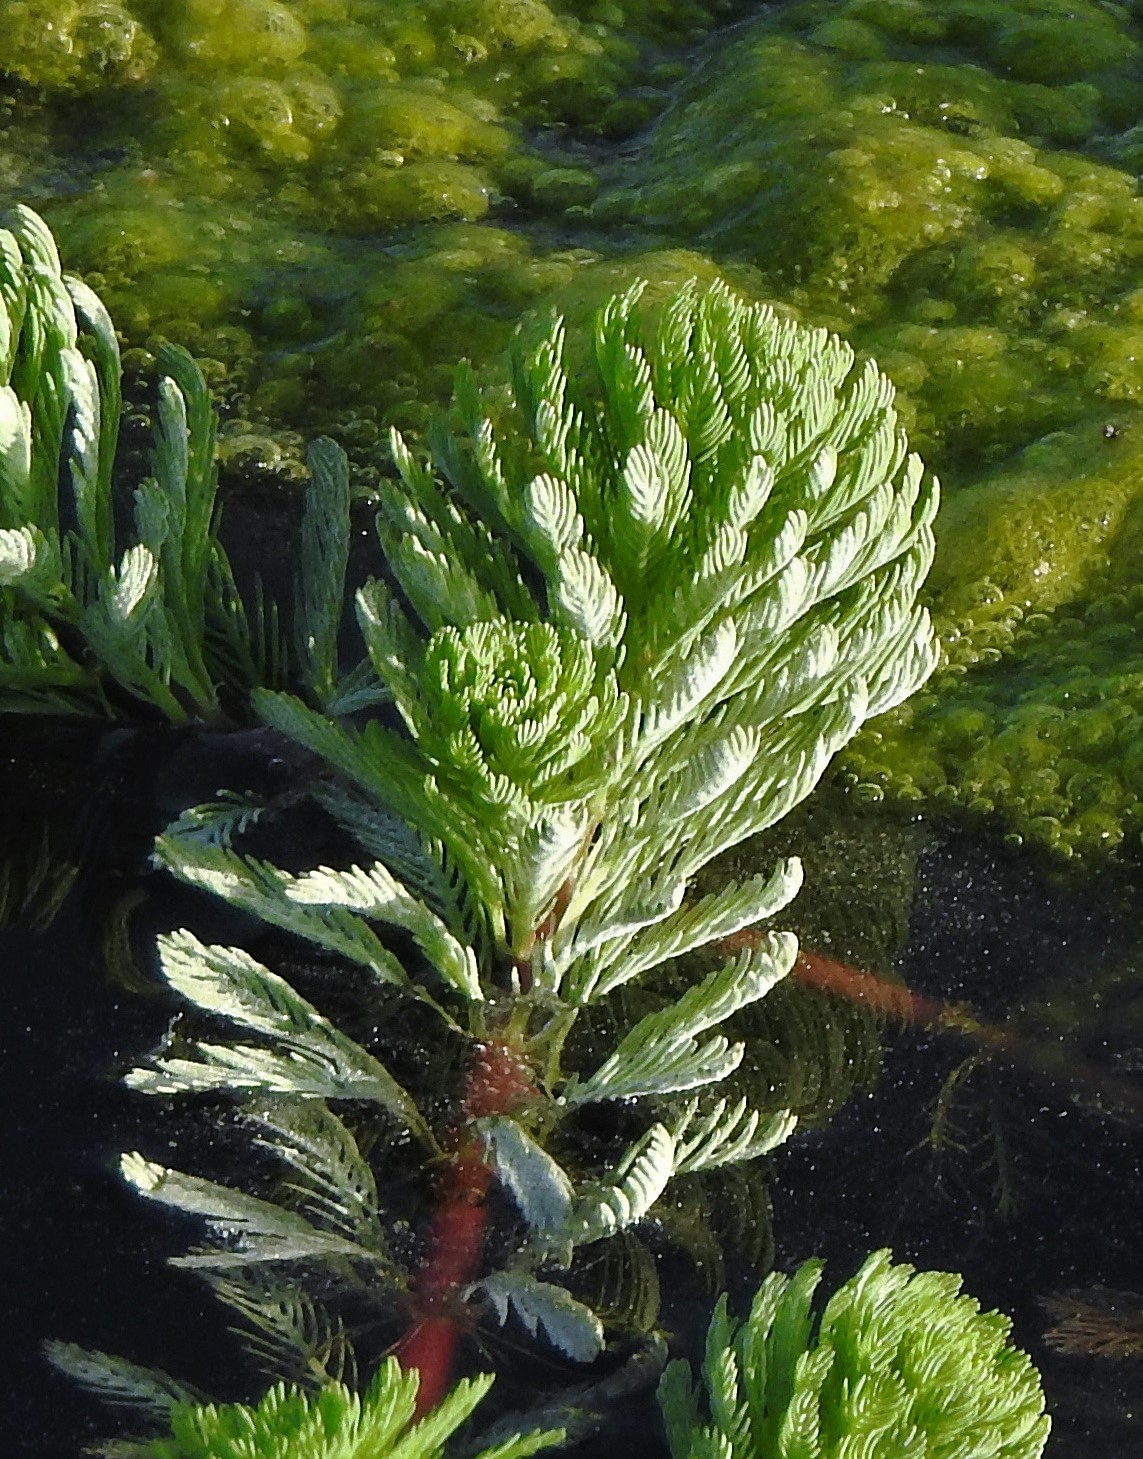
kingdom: Plantae
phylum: Tracheophyta
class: Magnoliopsida
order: Saxifragales
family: Haloragaceae
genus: Myriophyllum
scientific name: Myriophyllum aquaticum
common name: Parrot's feather
